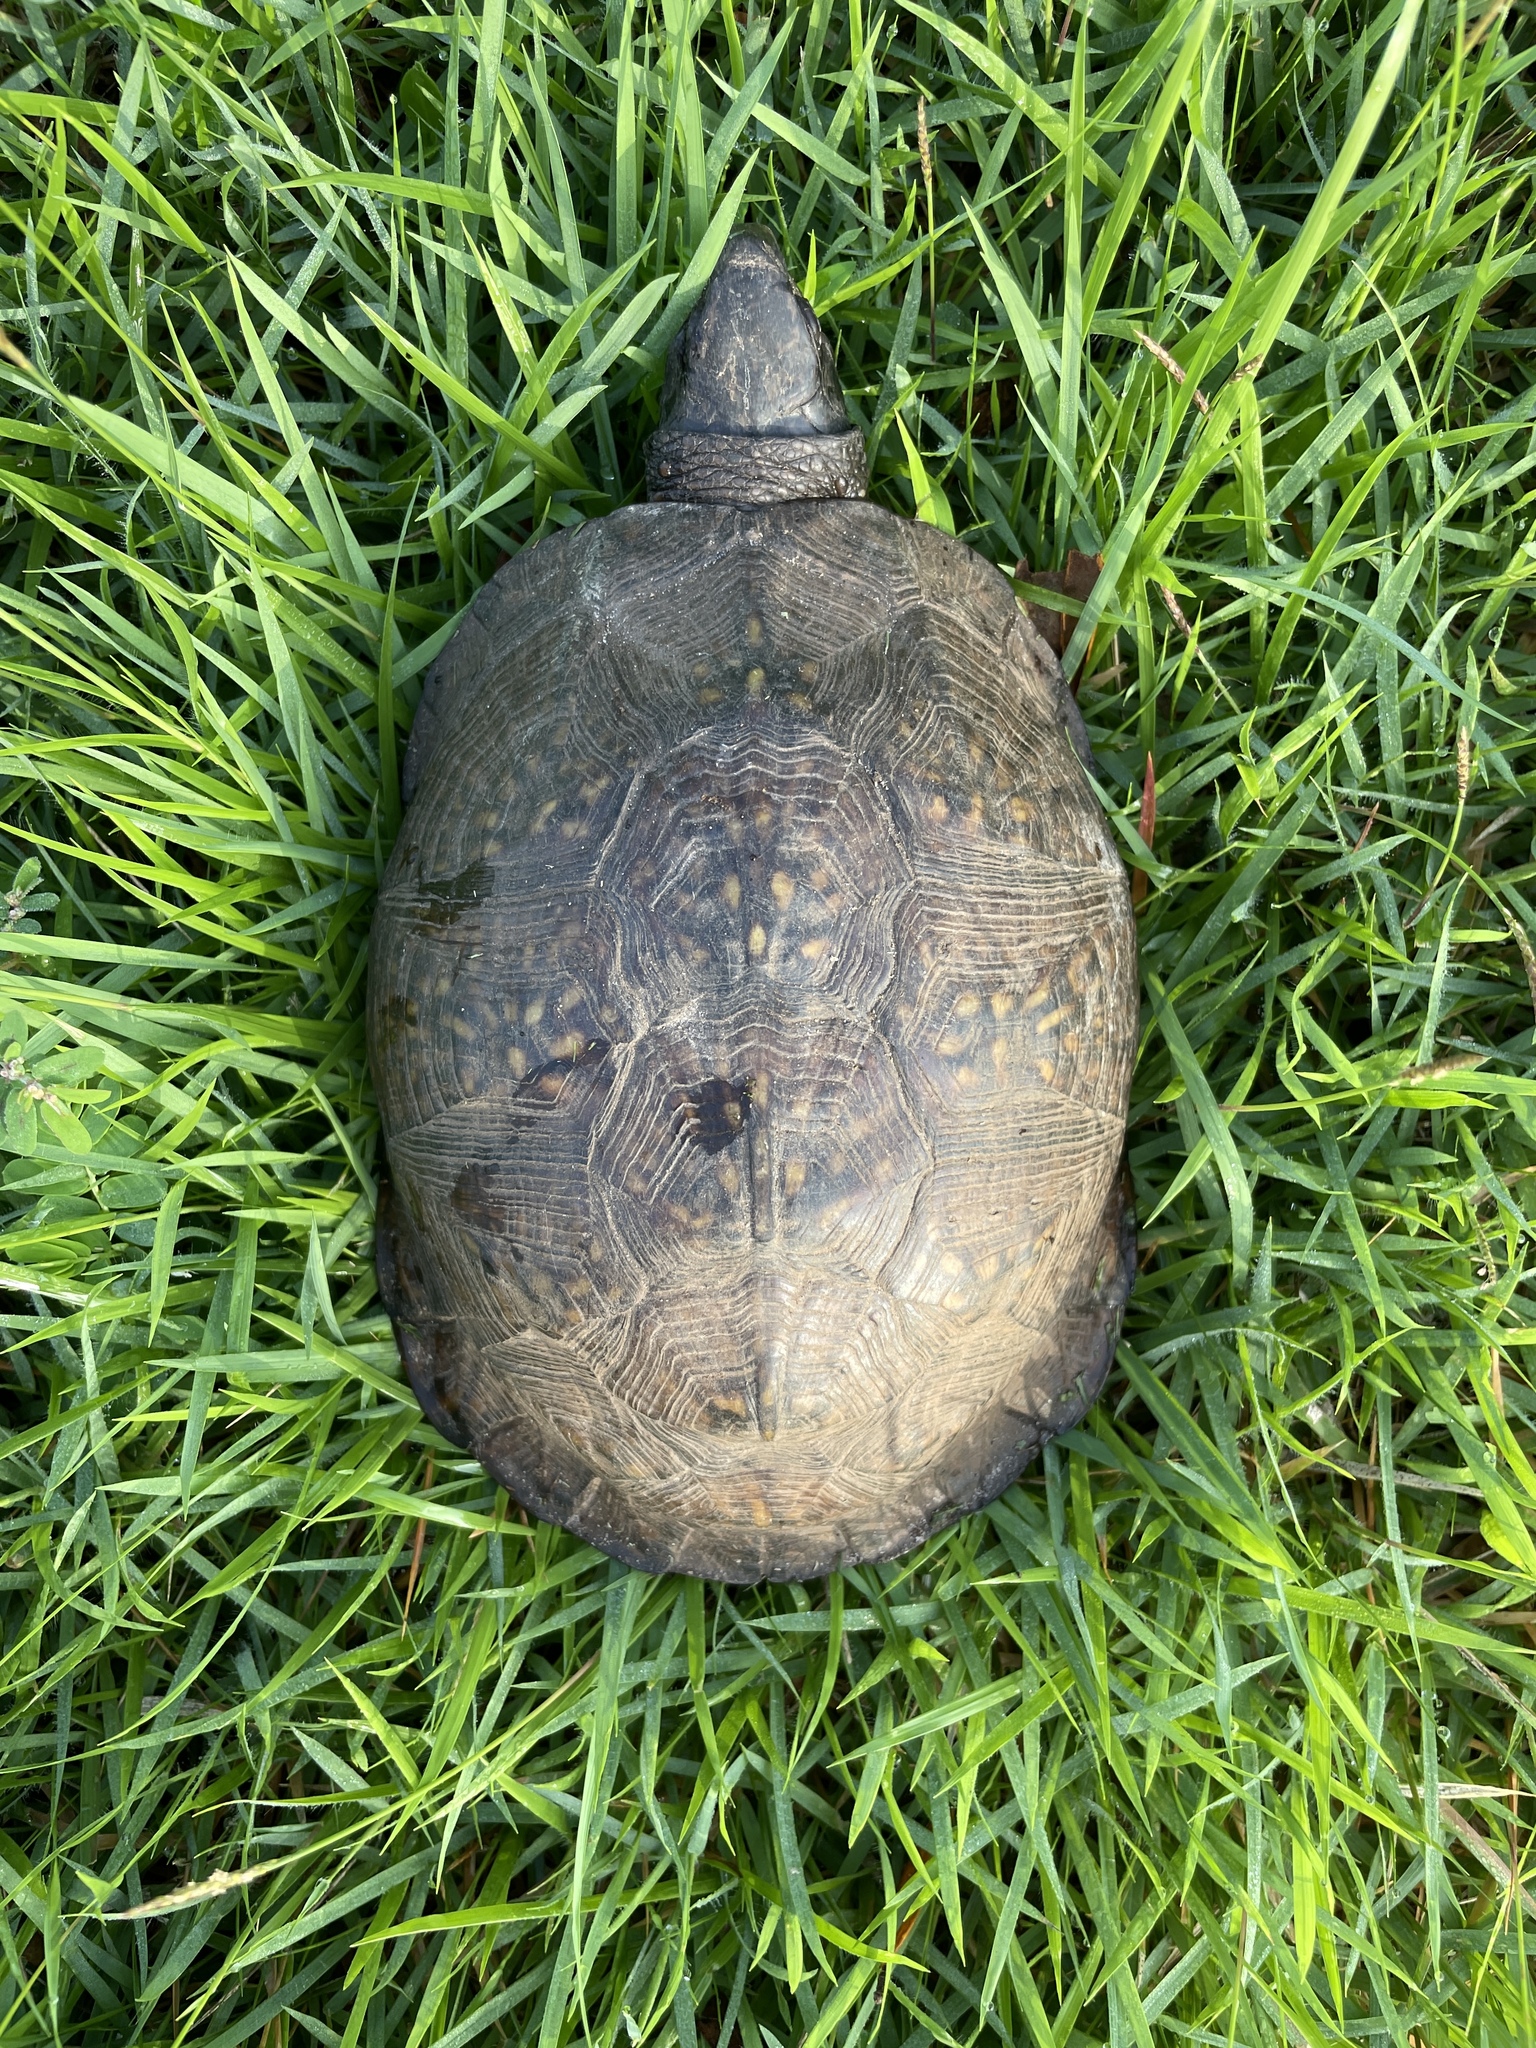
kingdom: Animalia
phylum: Chordata
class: Testudines
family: Emydidae
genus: Terrapene
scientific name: Terrapene carolina
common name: Common box turtle
